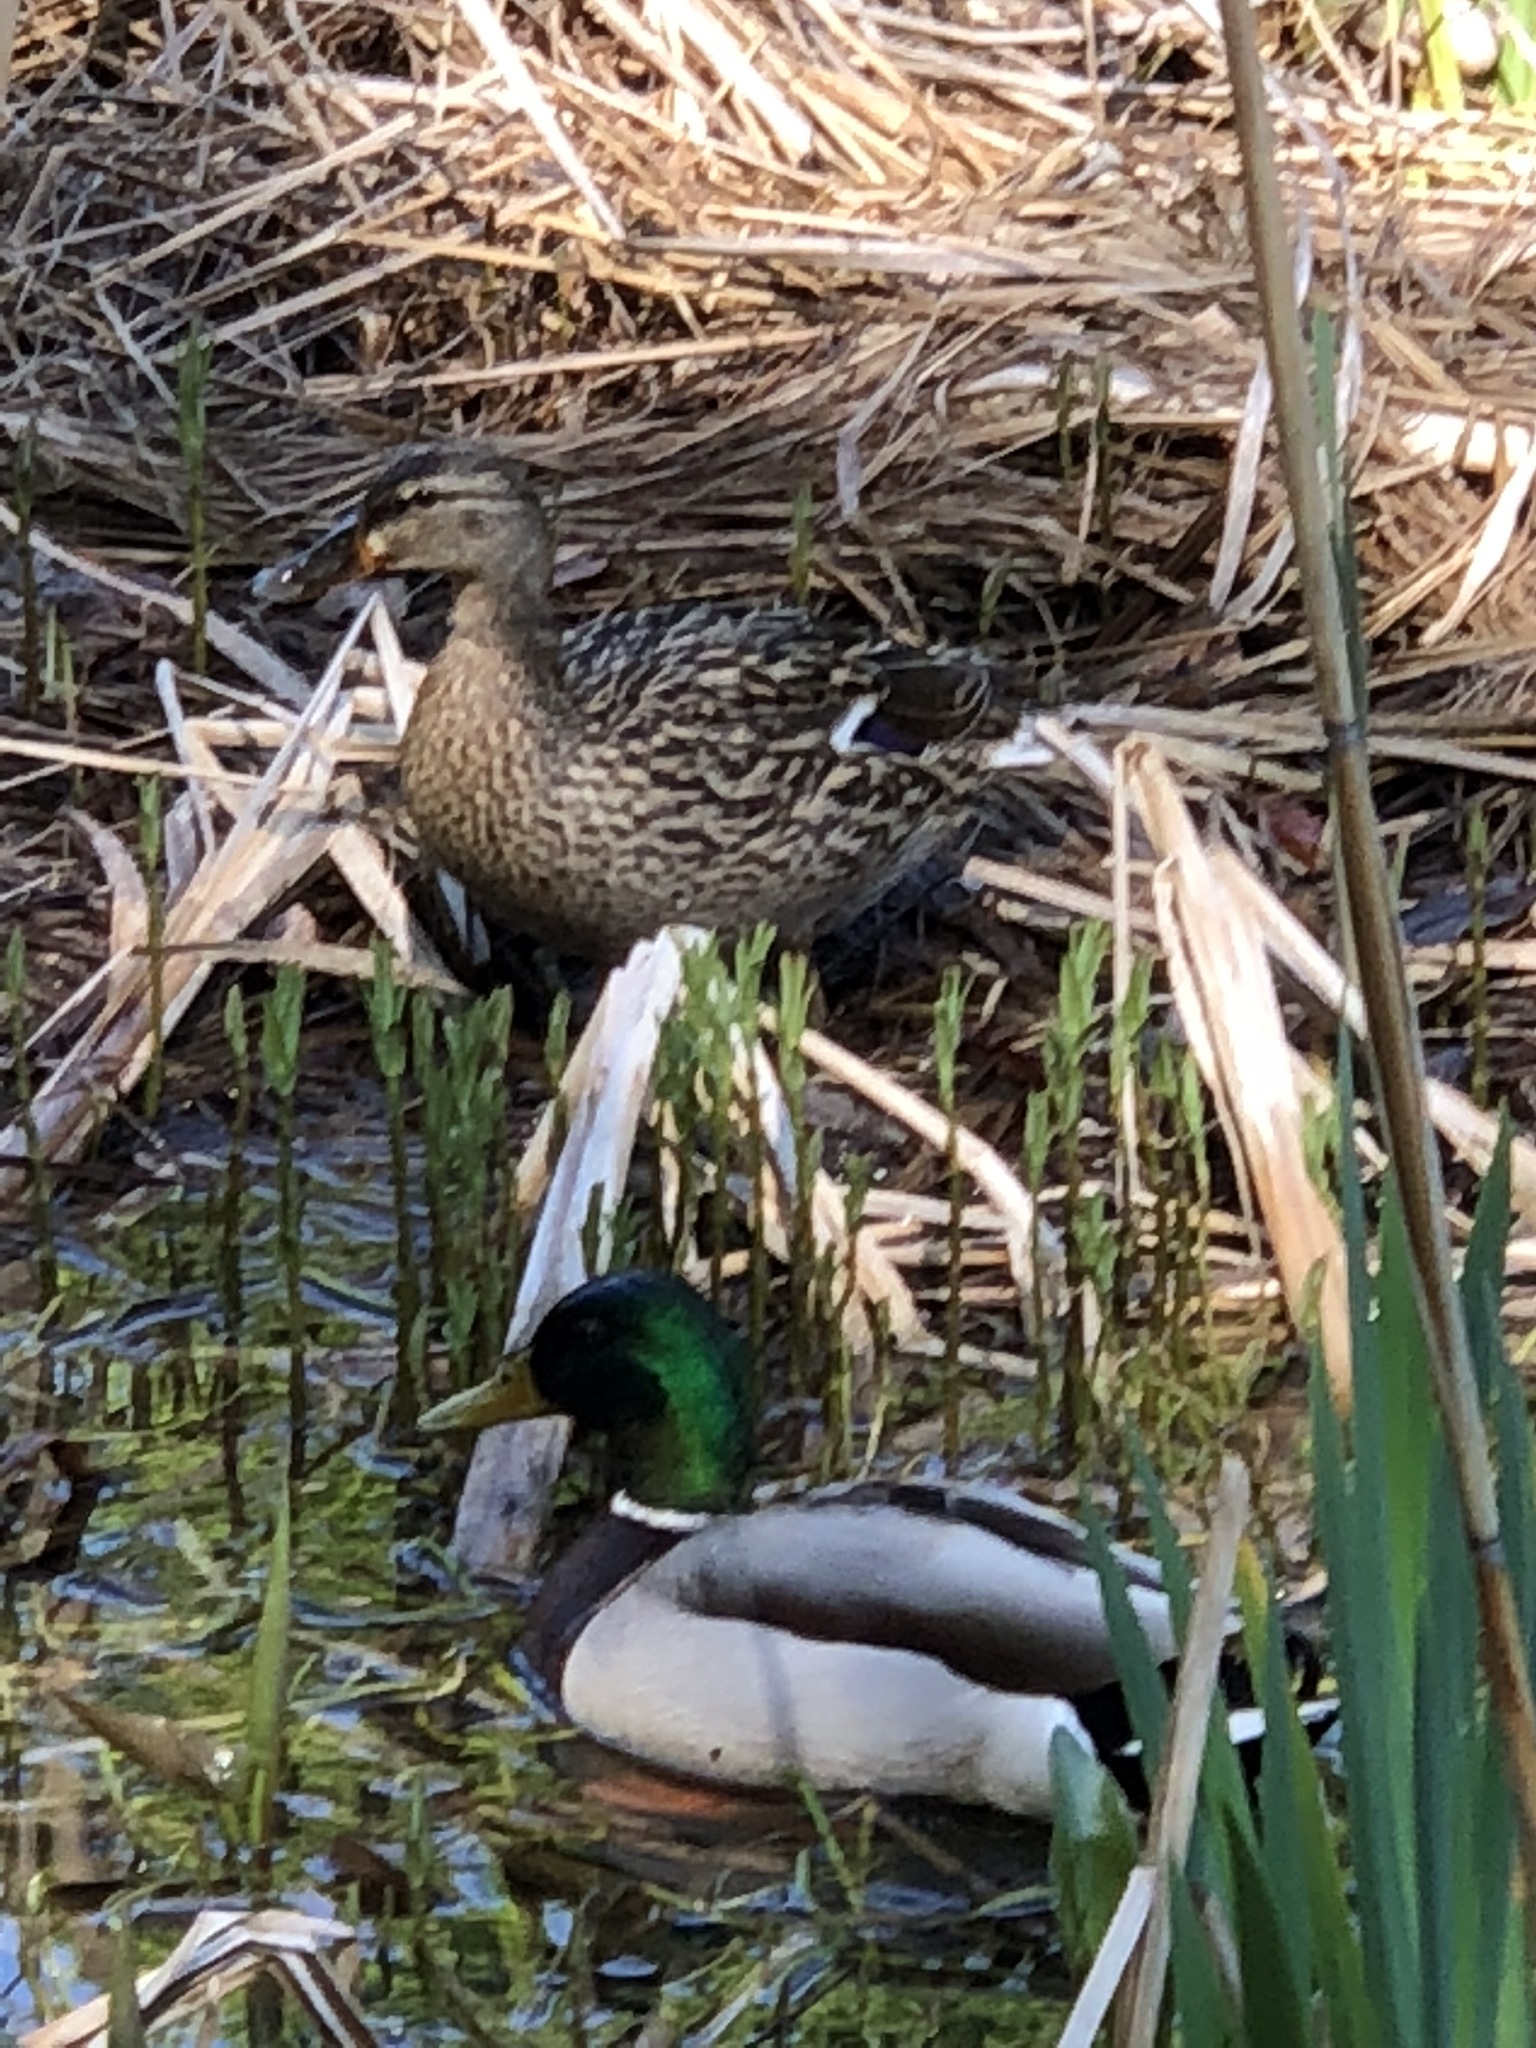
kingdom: Animalia
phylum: Chordata
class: Aves
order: Anseriformes
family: Anatidae
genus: Anas
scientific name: Anas platyrhynchos
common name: Mallard
